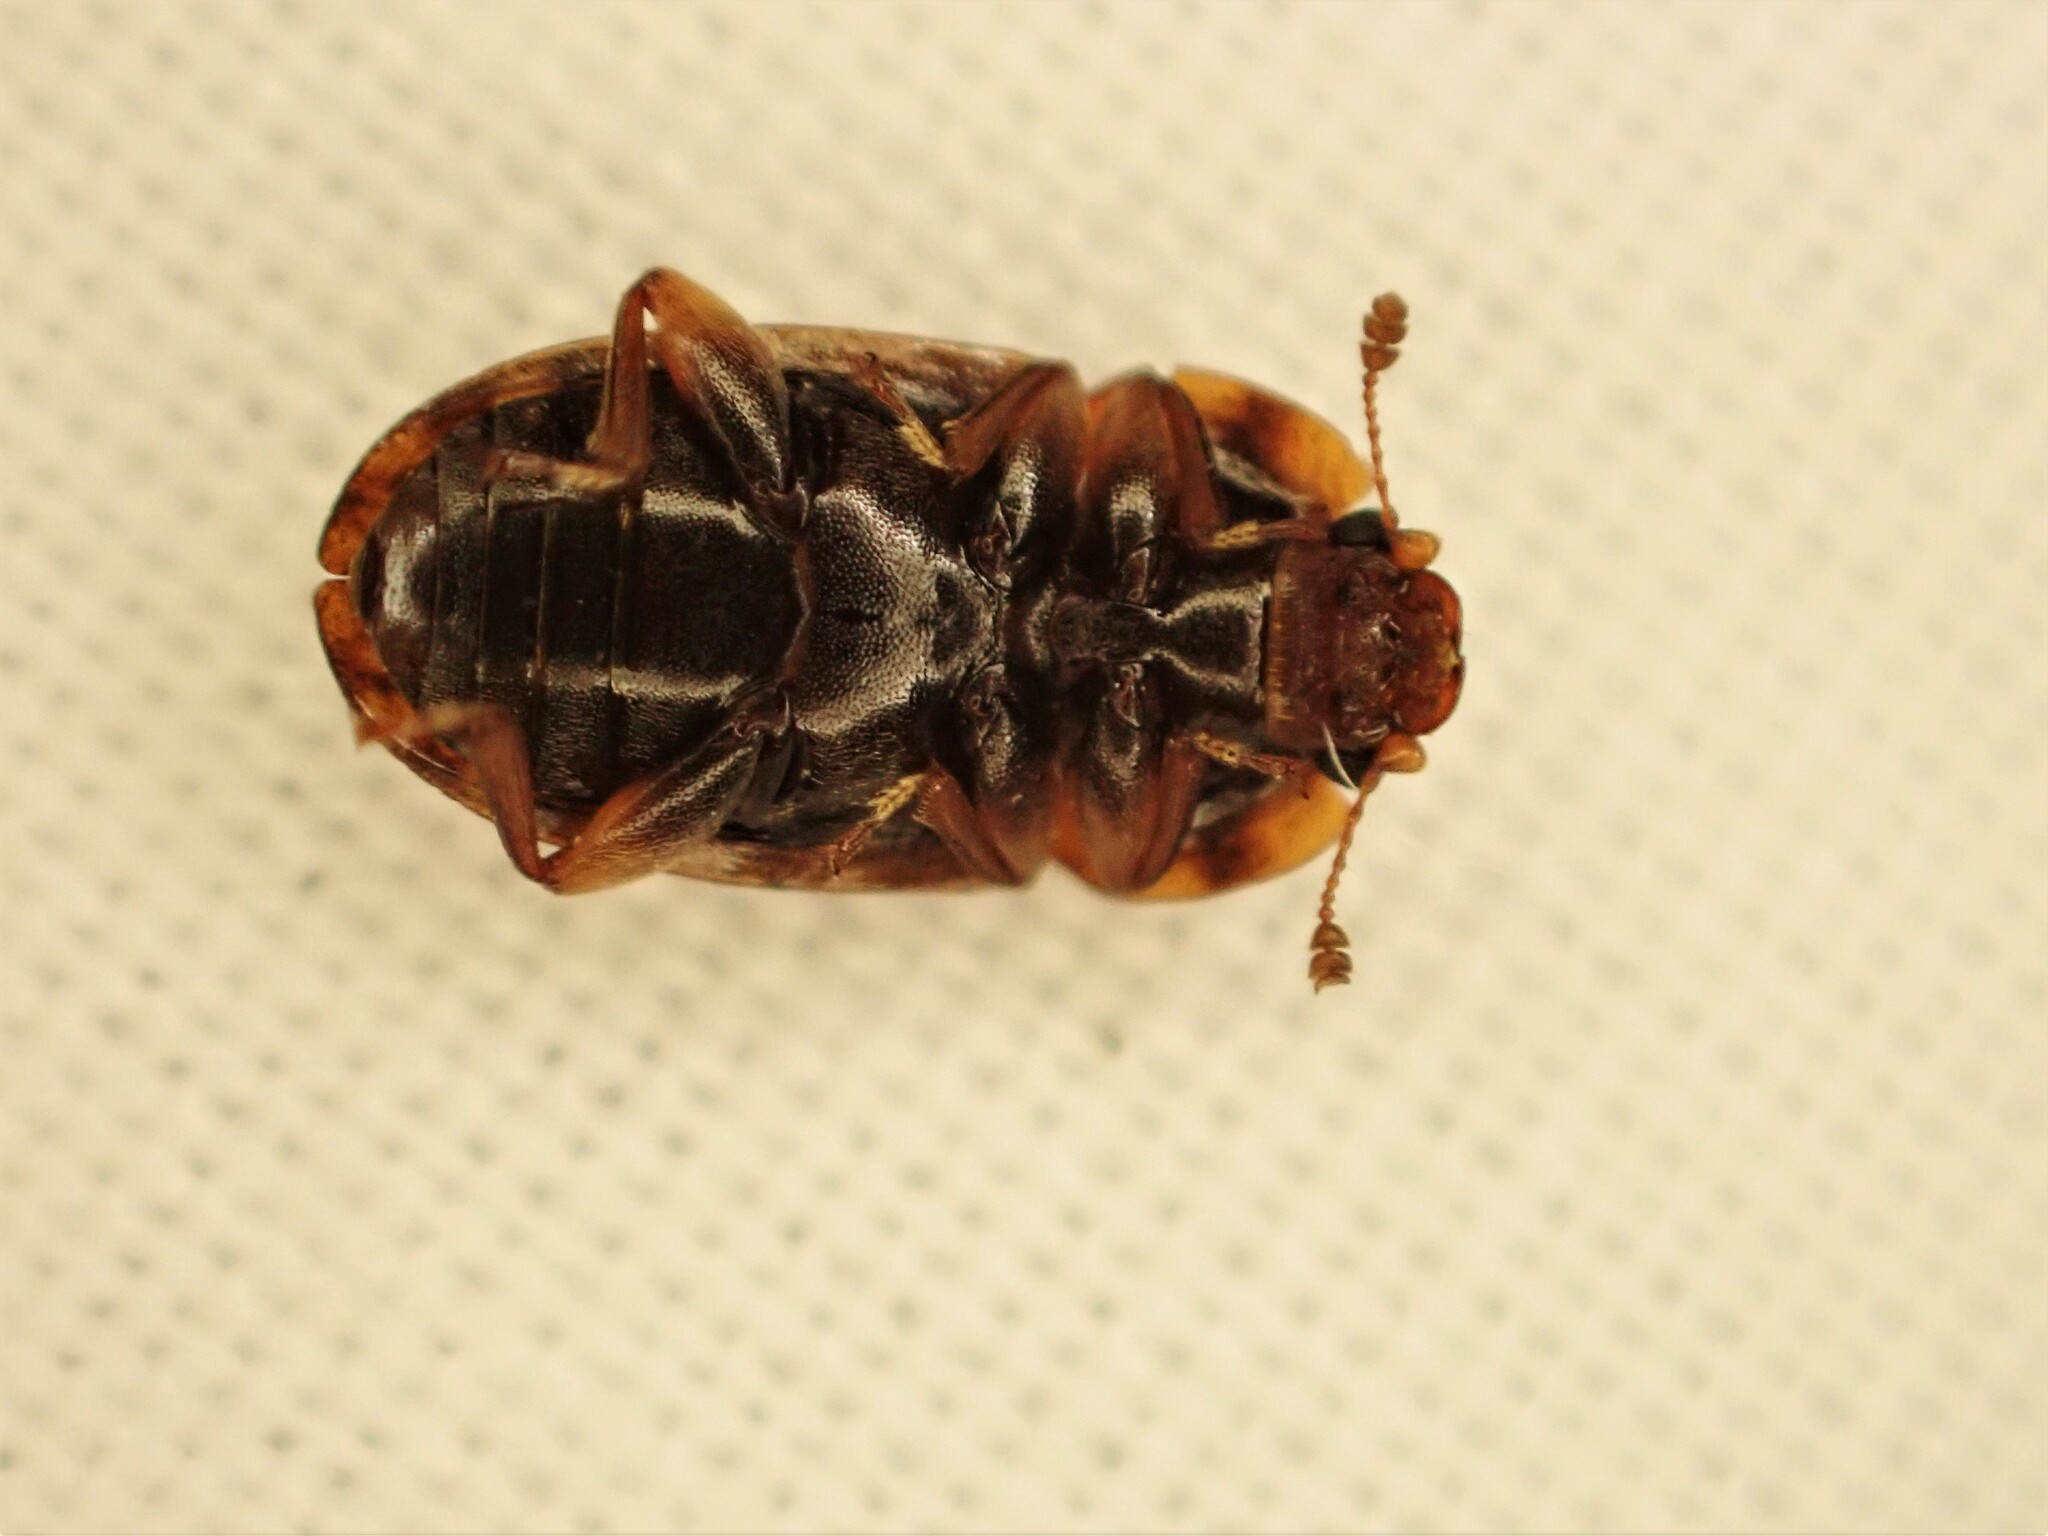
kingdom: Animalia
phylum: Arthropoda
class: Insecta
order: Coleoptera
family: Nitidulidae
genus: Soronia
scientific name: Soronia
